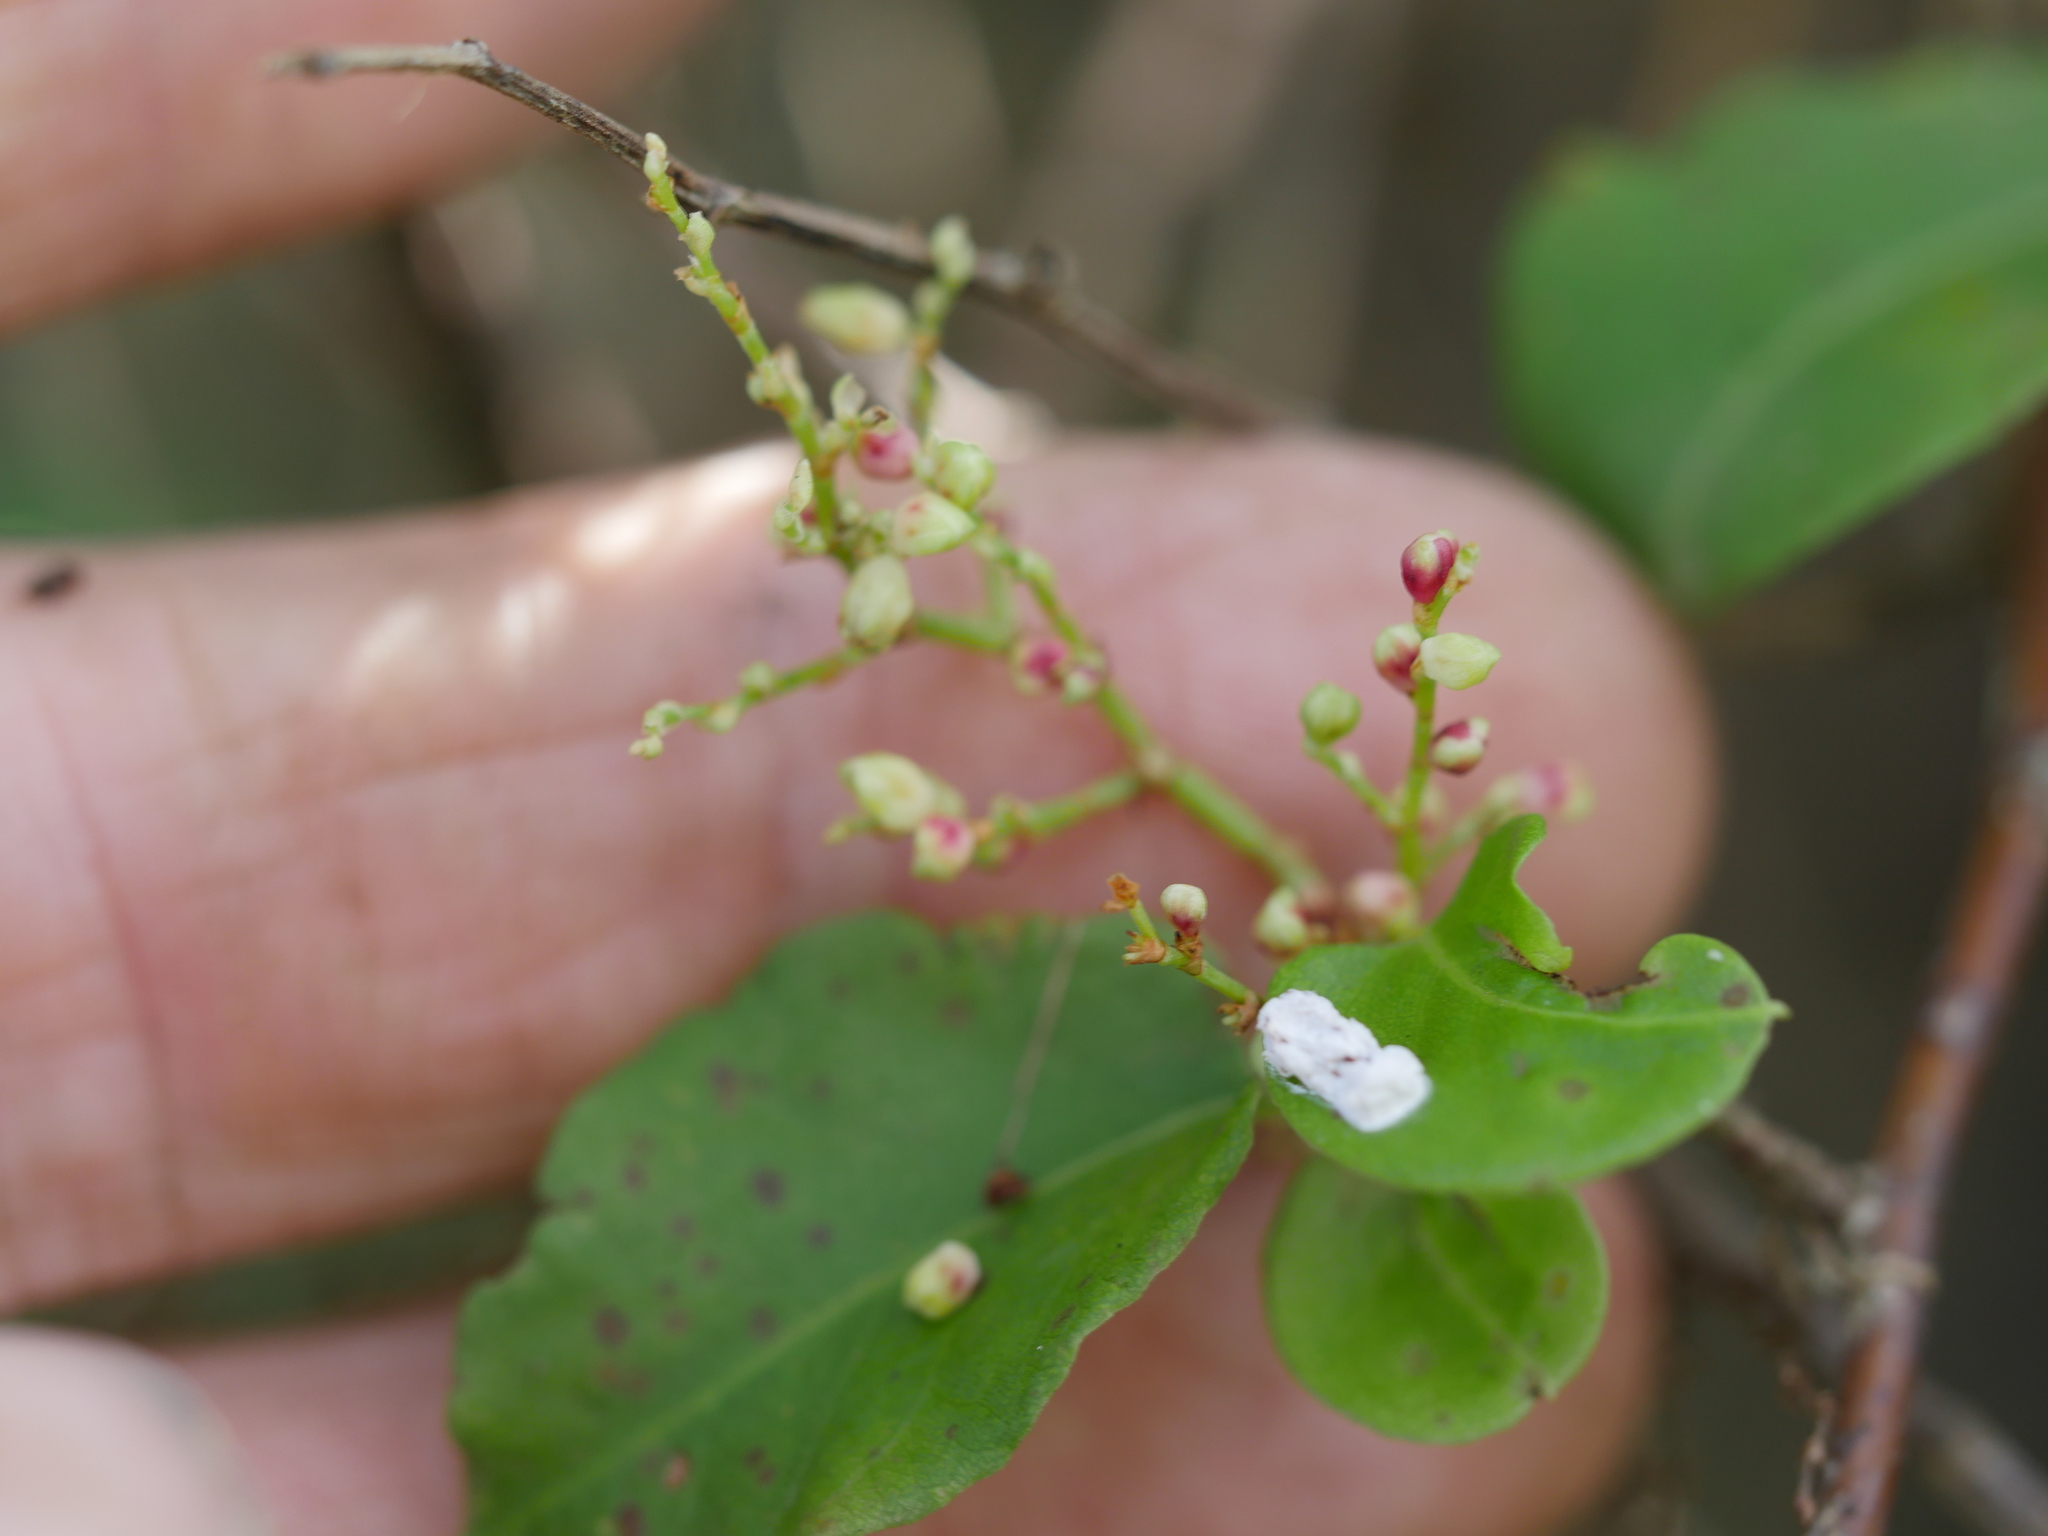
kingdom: Plantae
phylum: Tracheophyta
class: Magnoliopsida
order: Caryophyllales
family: Polygonaceae
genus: Muehlenbeckia
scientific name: Muehlenbeckia australis
